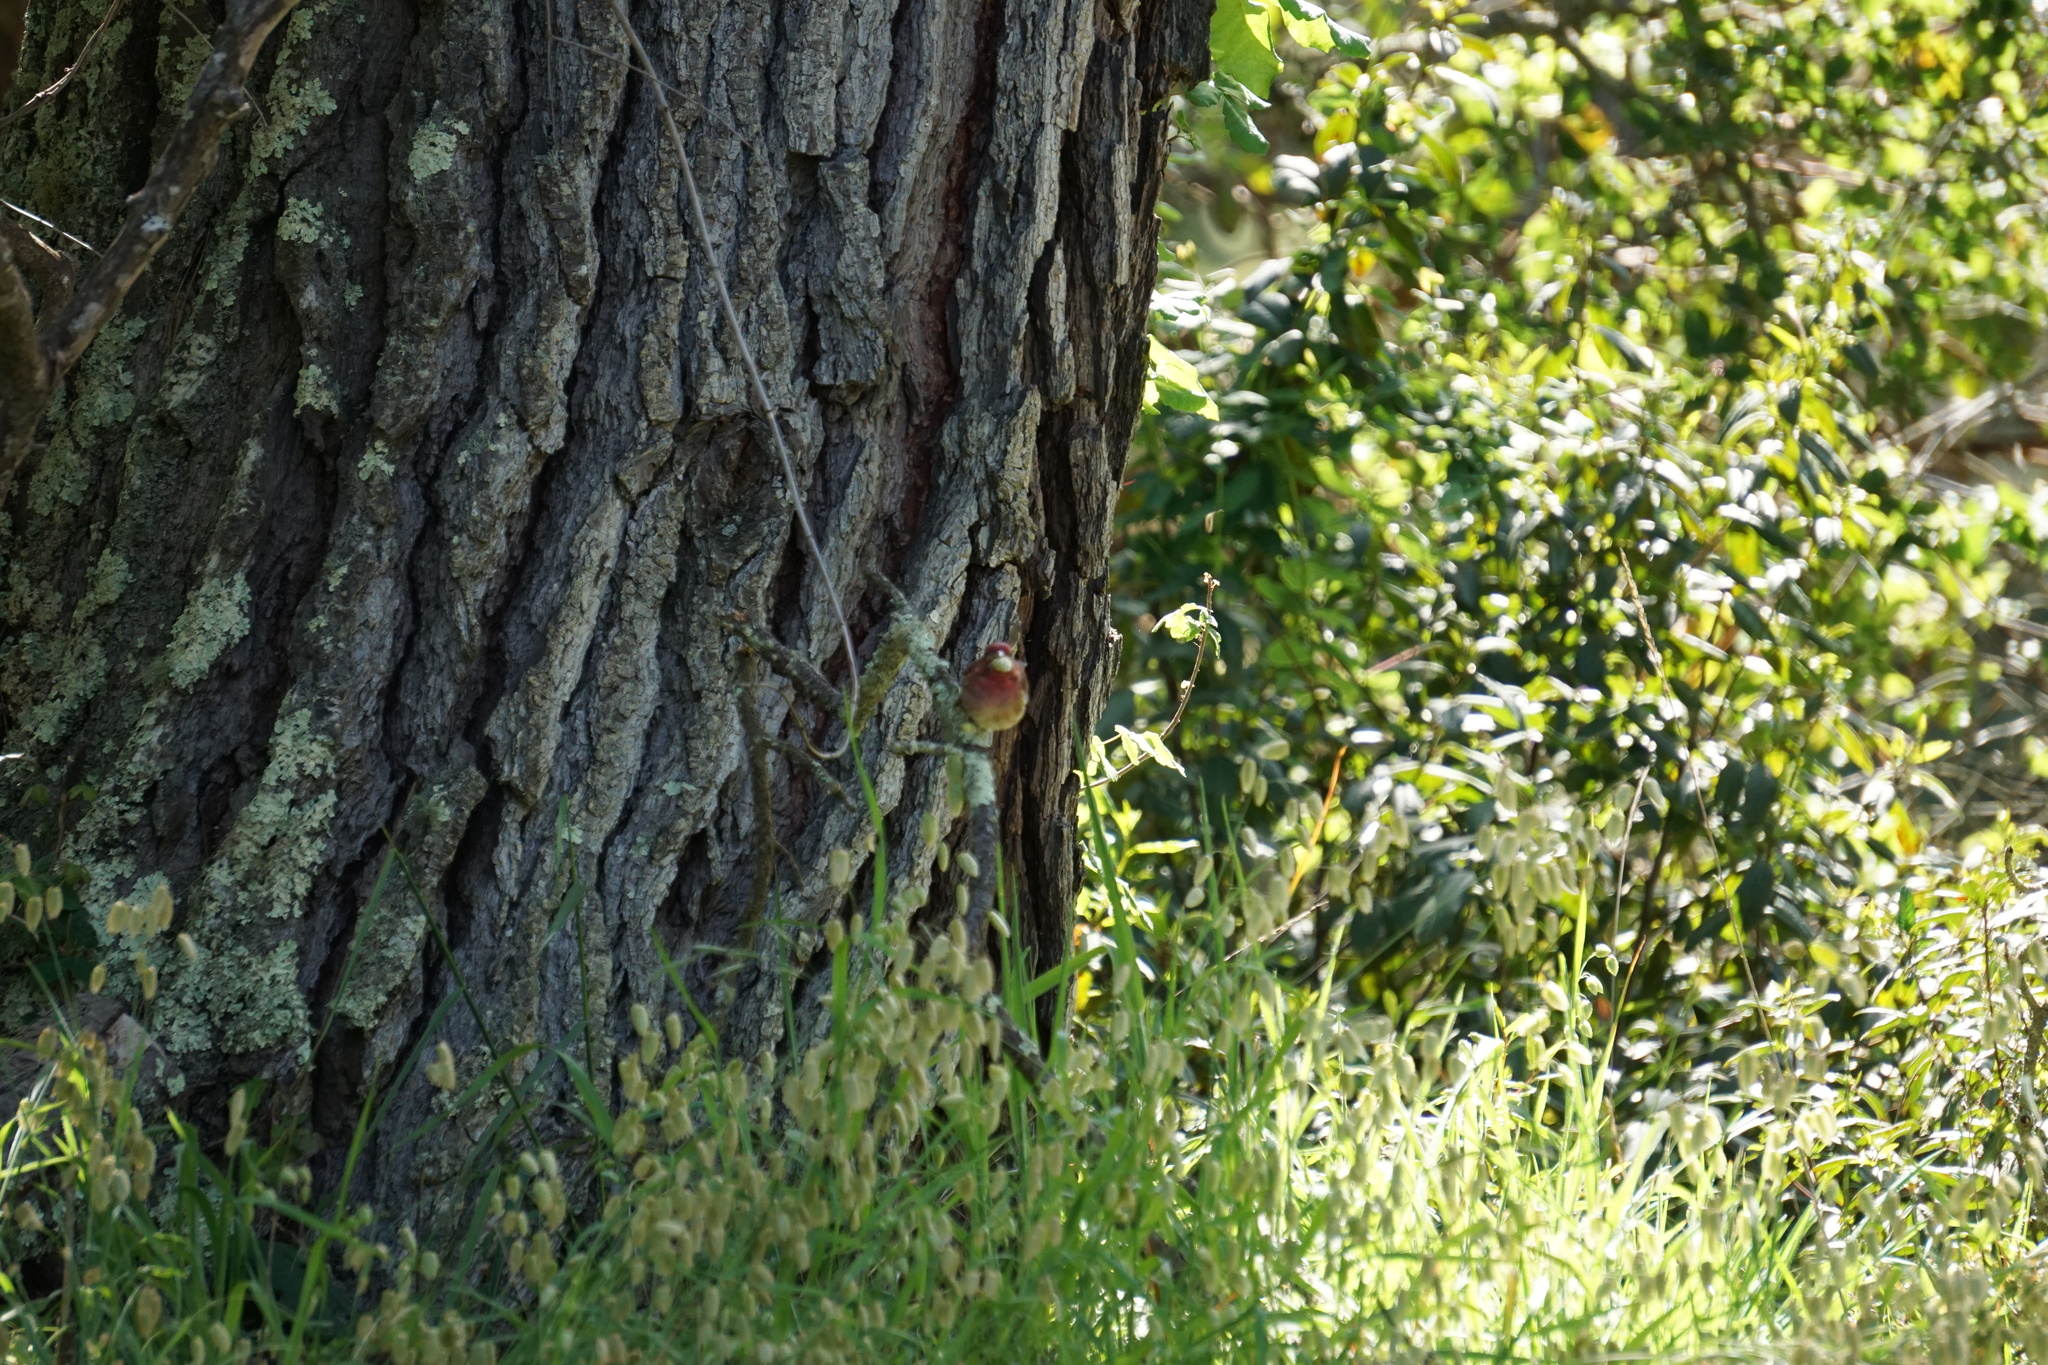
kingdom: Animalia
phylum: Chordata
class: Aves
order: Passeriformes
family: Fringillidae
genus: Haemorhous
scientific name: Haemorhous purpureus
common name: Purple finch
